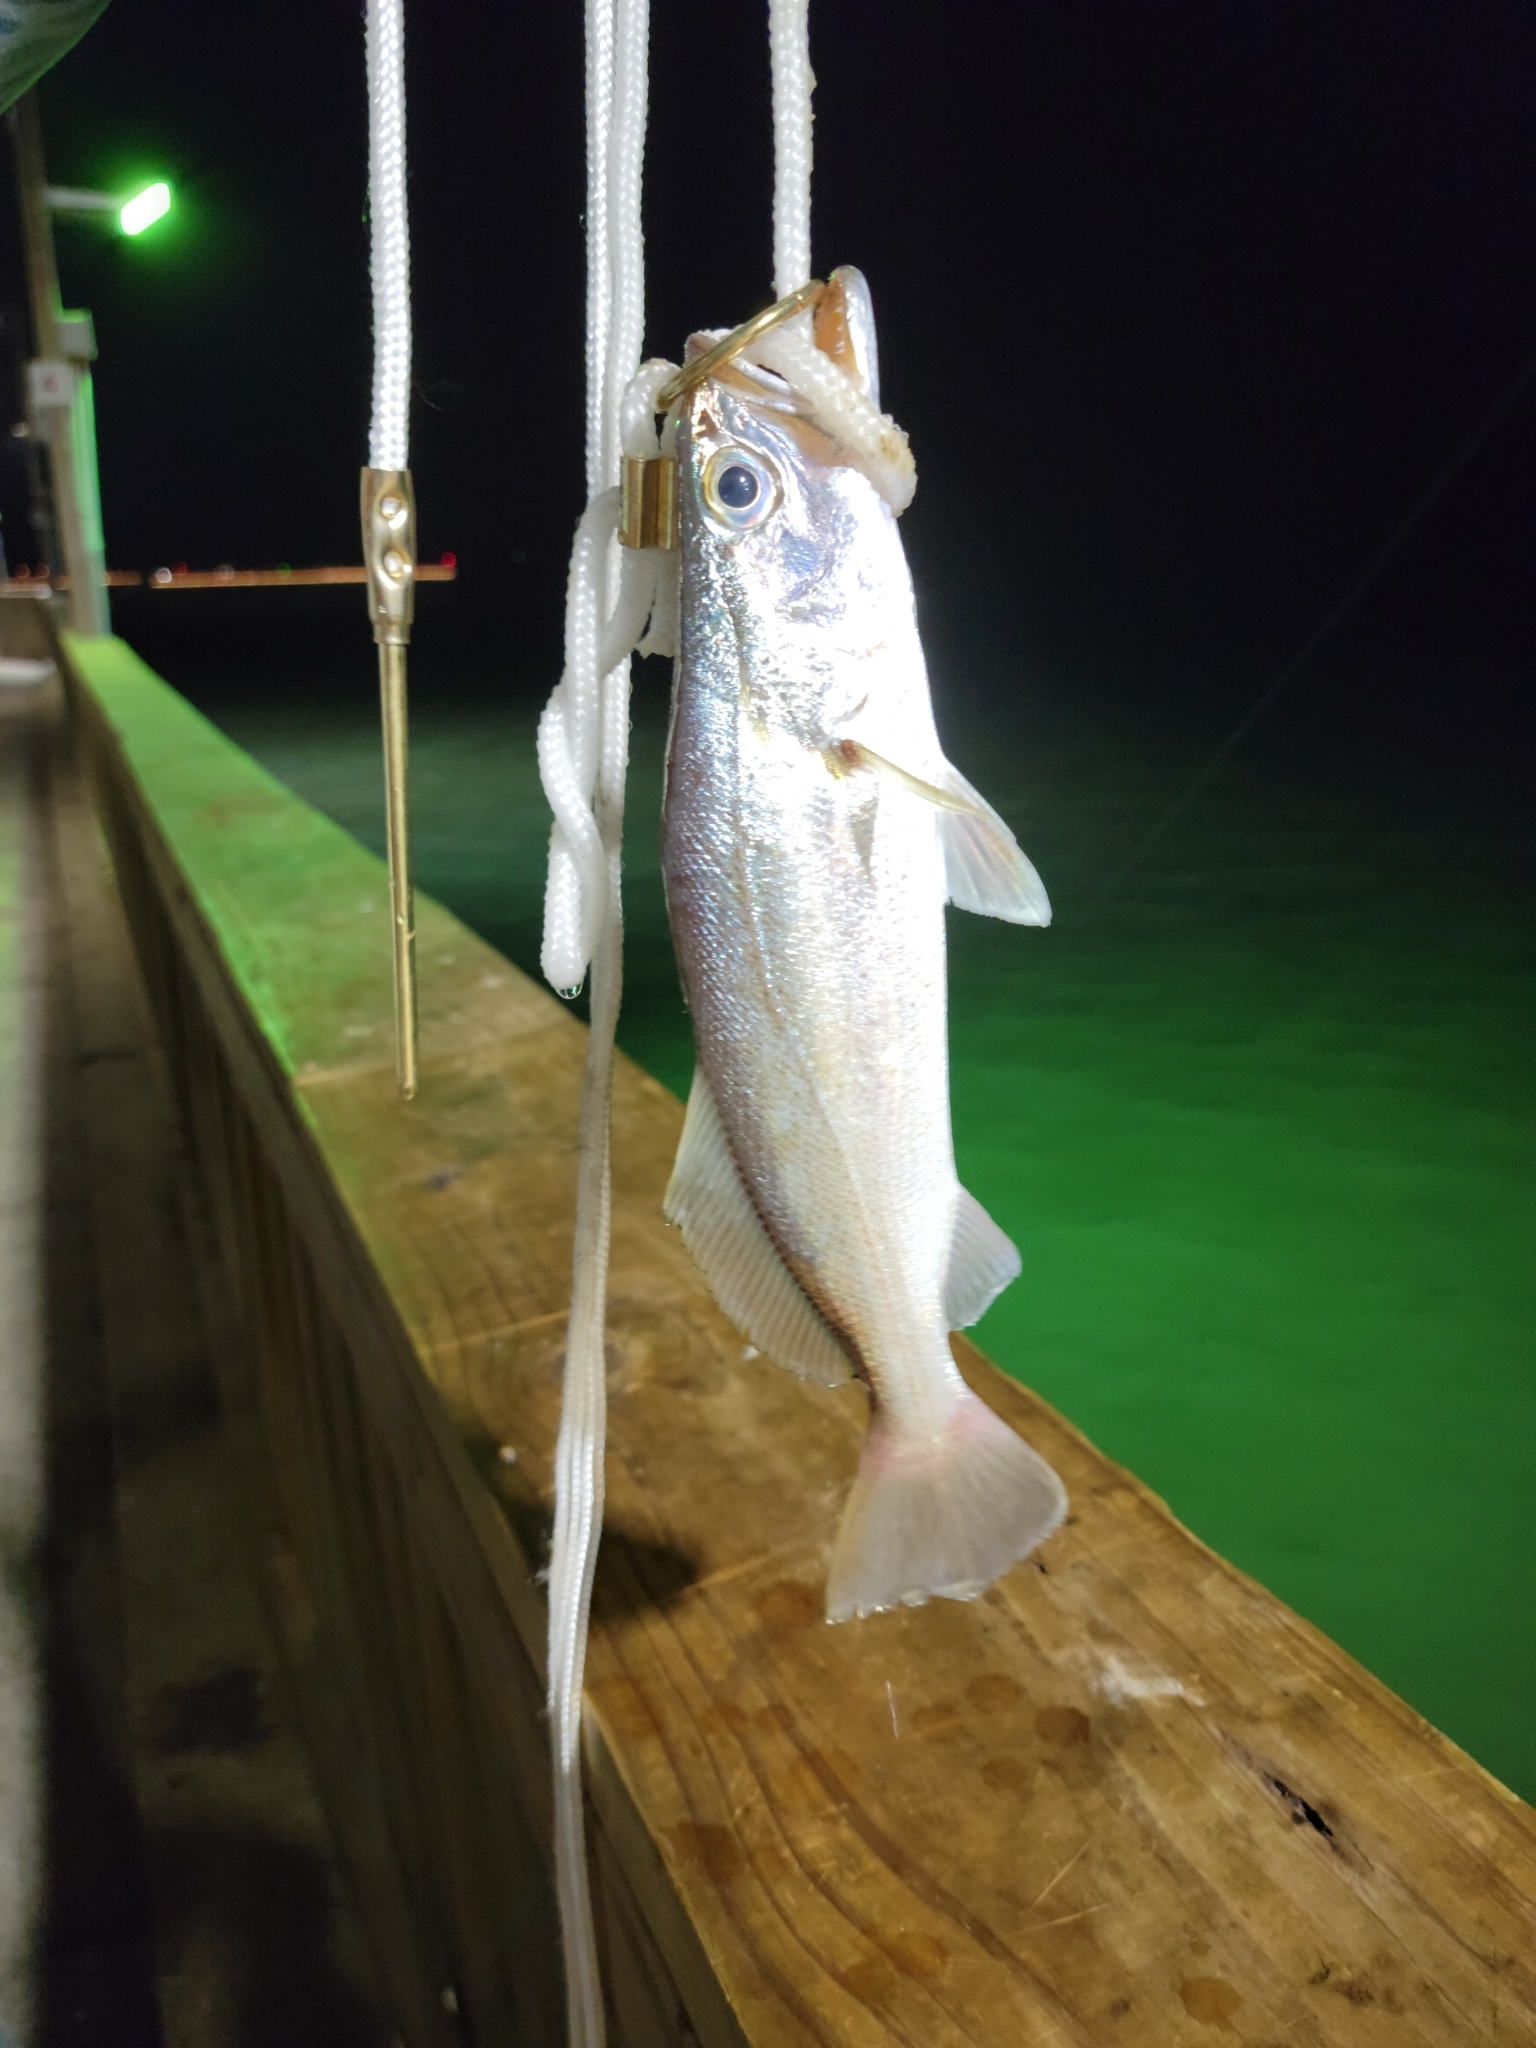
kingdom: Animalia
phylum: Chordata
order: Perciformes
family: Sciaenidae
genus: Cynoscion
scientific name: Cynoscion arenarius
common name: Sand seatrout
